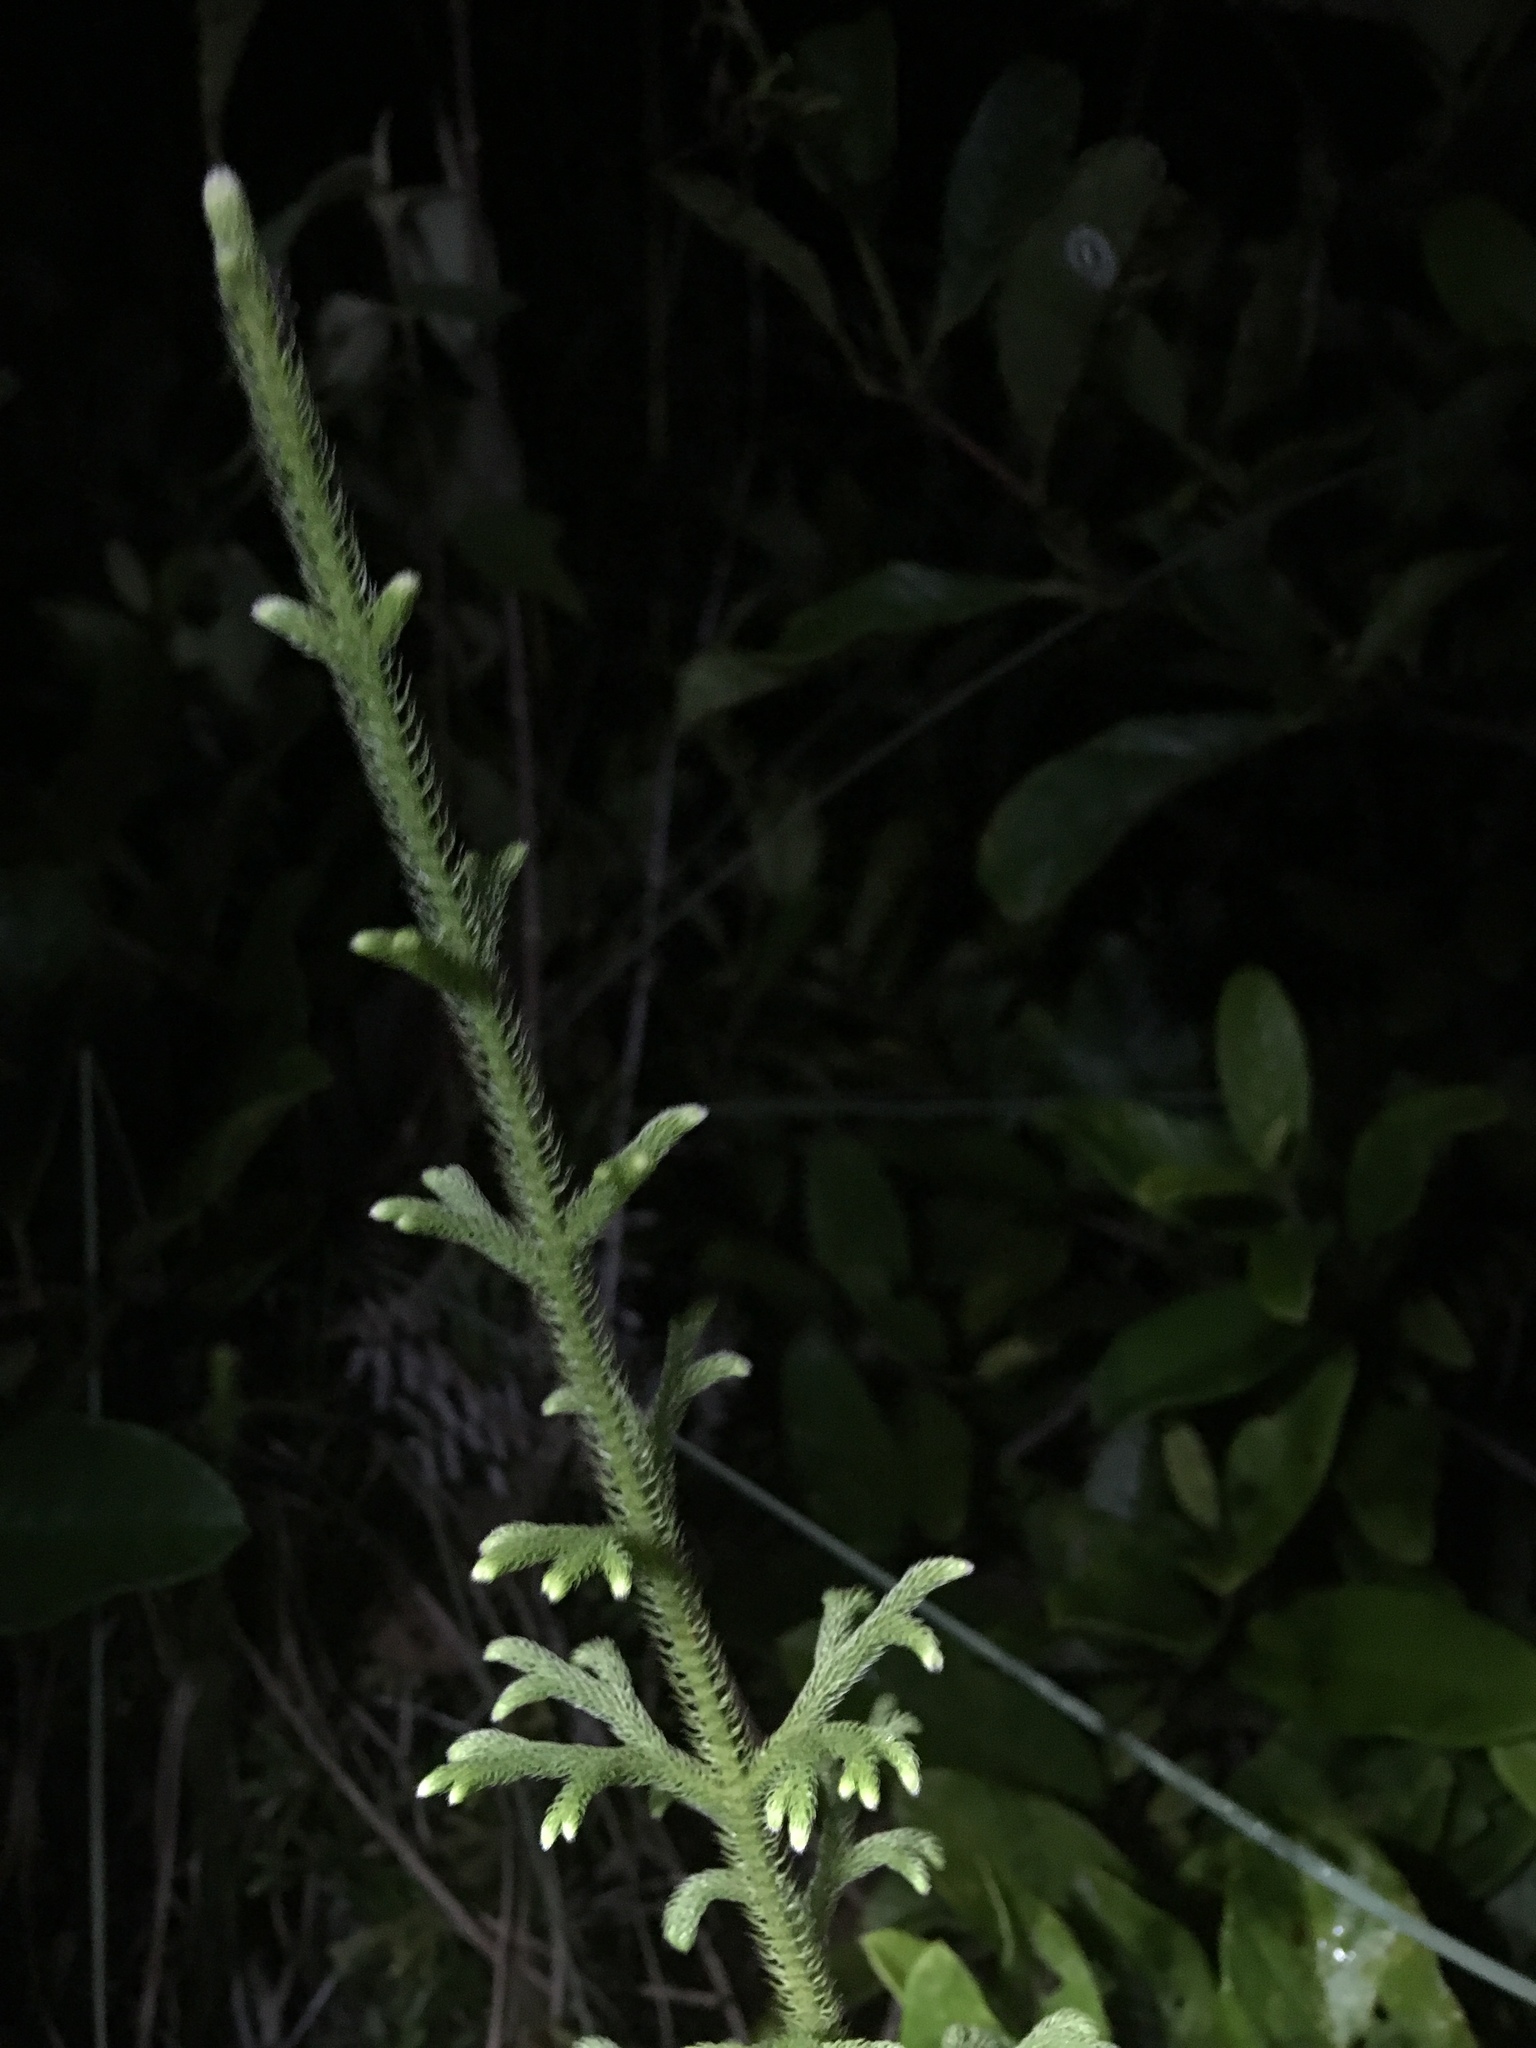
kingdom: Plantae
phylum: Tracheophyta
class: Lycopodiopsida
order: Lycopodiales
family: Lycopodiaceae
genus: Palhinhaea
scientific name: Palhinhaea cernua
